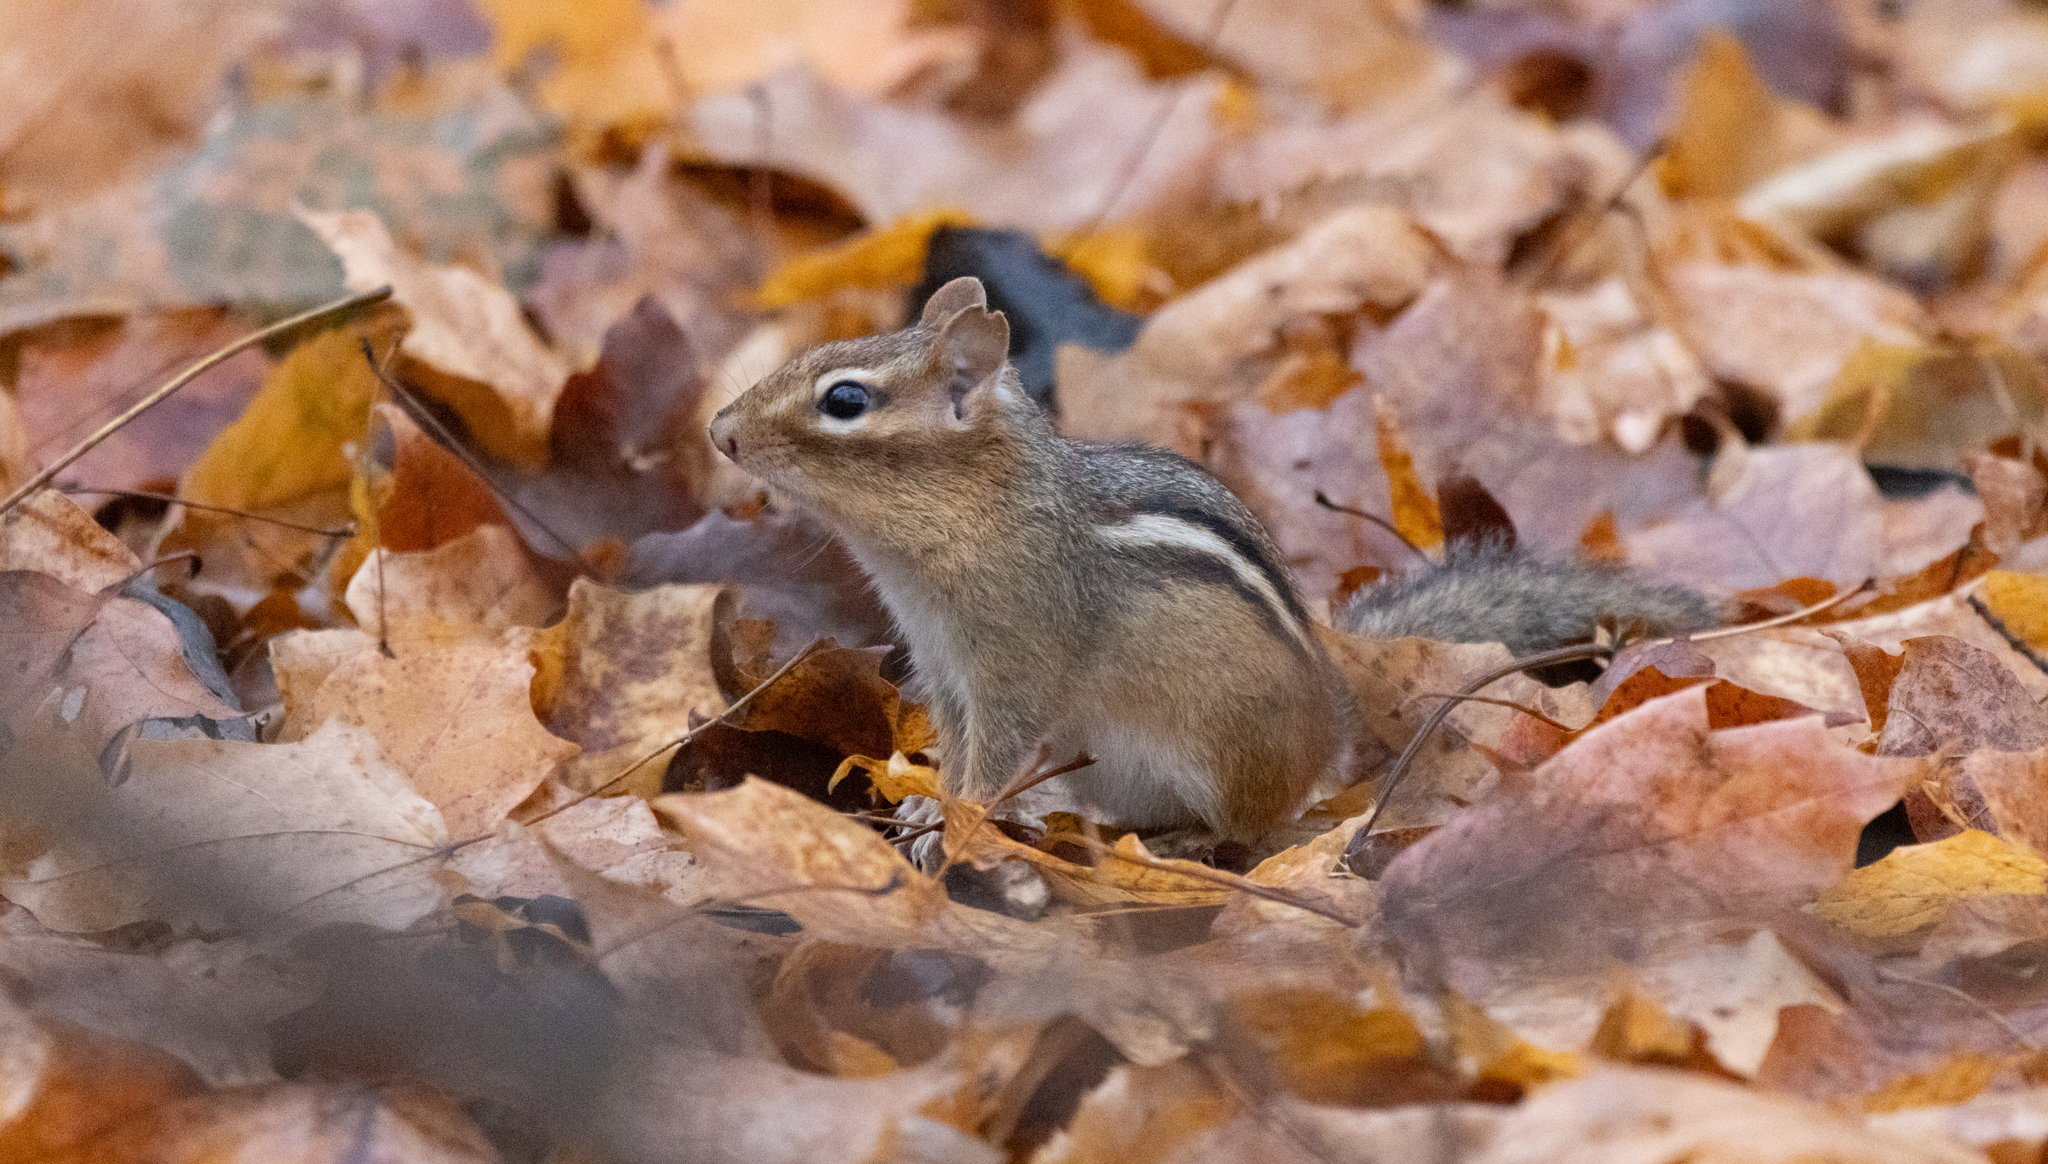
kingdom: Animalia
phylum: Chordata
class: Mammalia
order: Rodentia
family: Sciuridae
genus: Tamias
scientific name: Tamias striatus
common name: Eastern chipmunk
